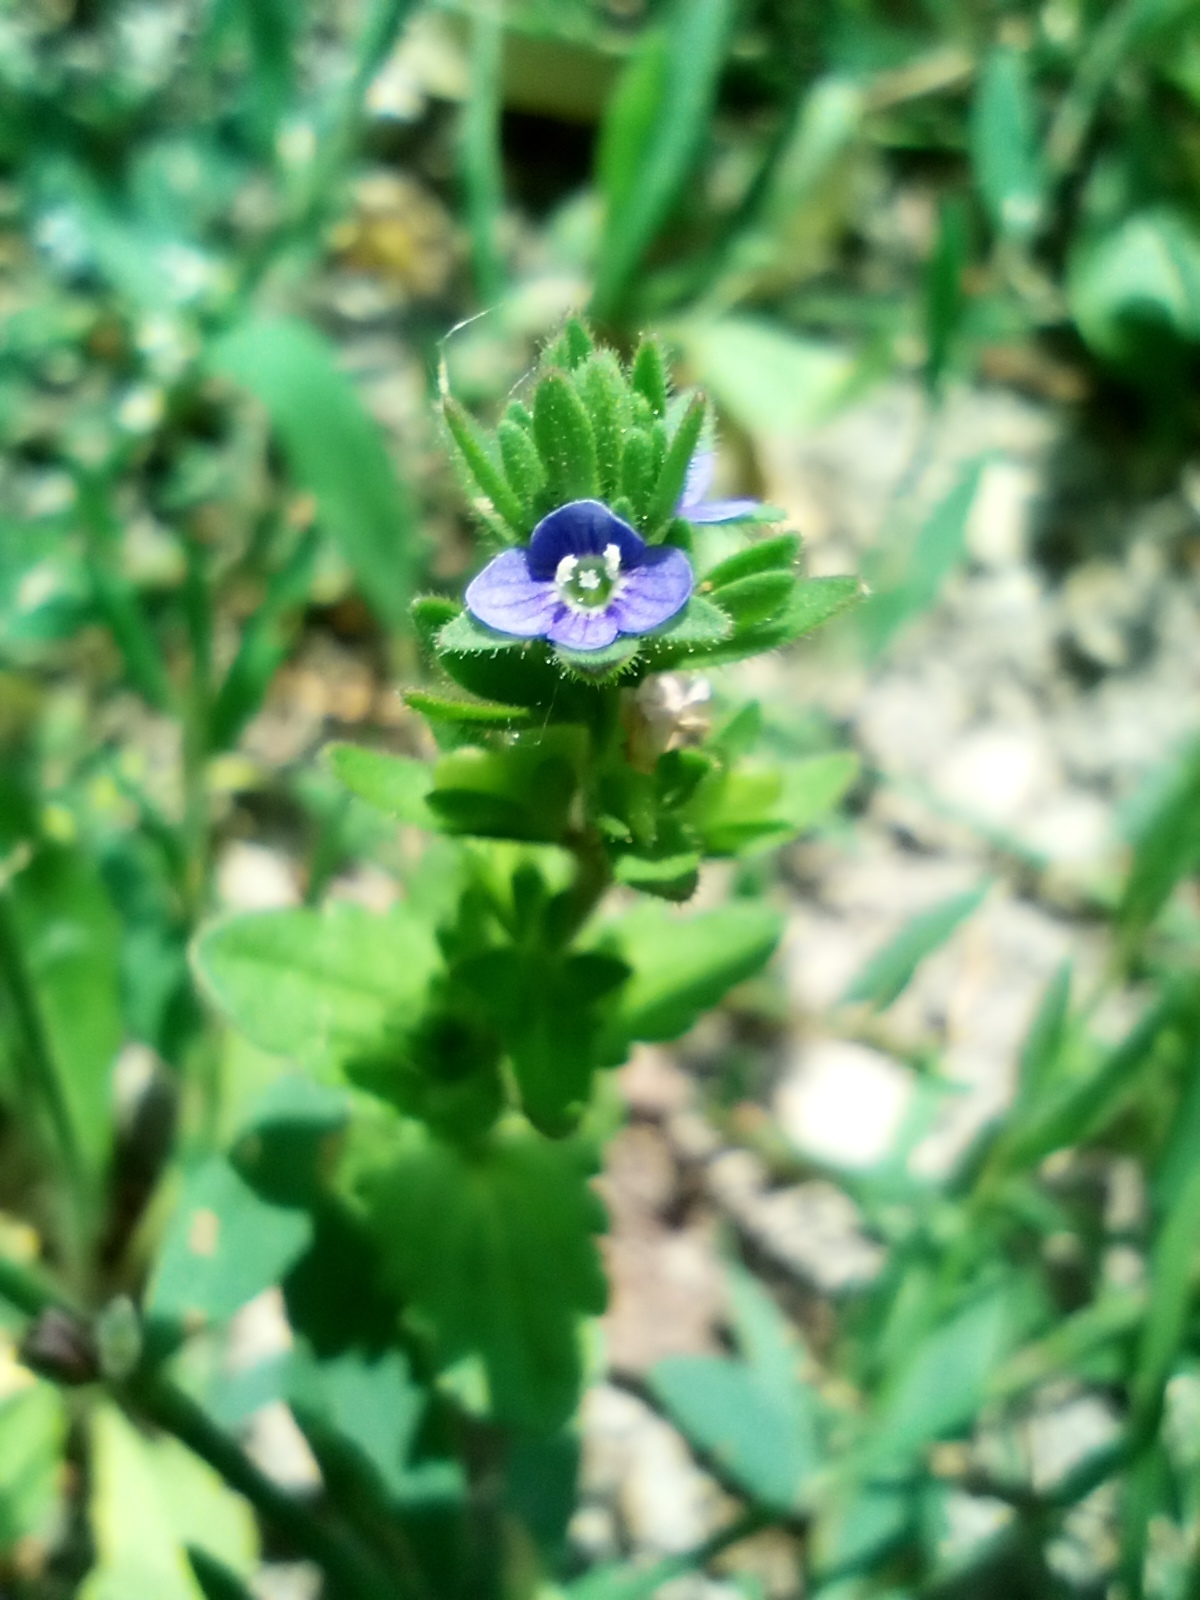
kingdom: Plantae
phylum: Tracheophyta
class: Magnoliopsida
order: Lamiales
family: Plantaginaceae
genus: Veronica
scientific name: Veronica arvensis
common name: Corn speedwell
